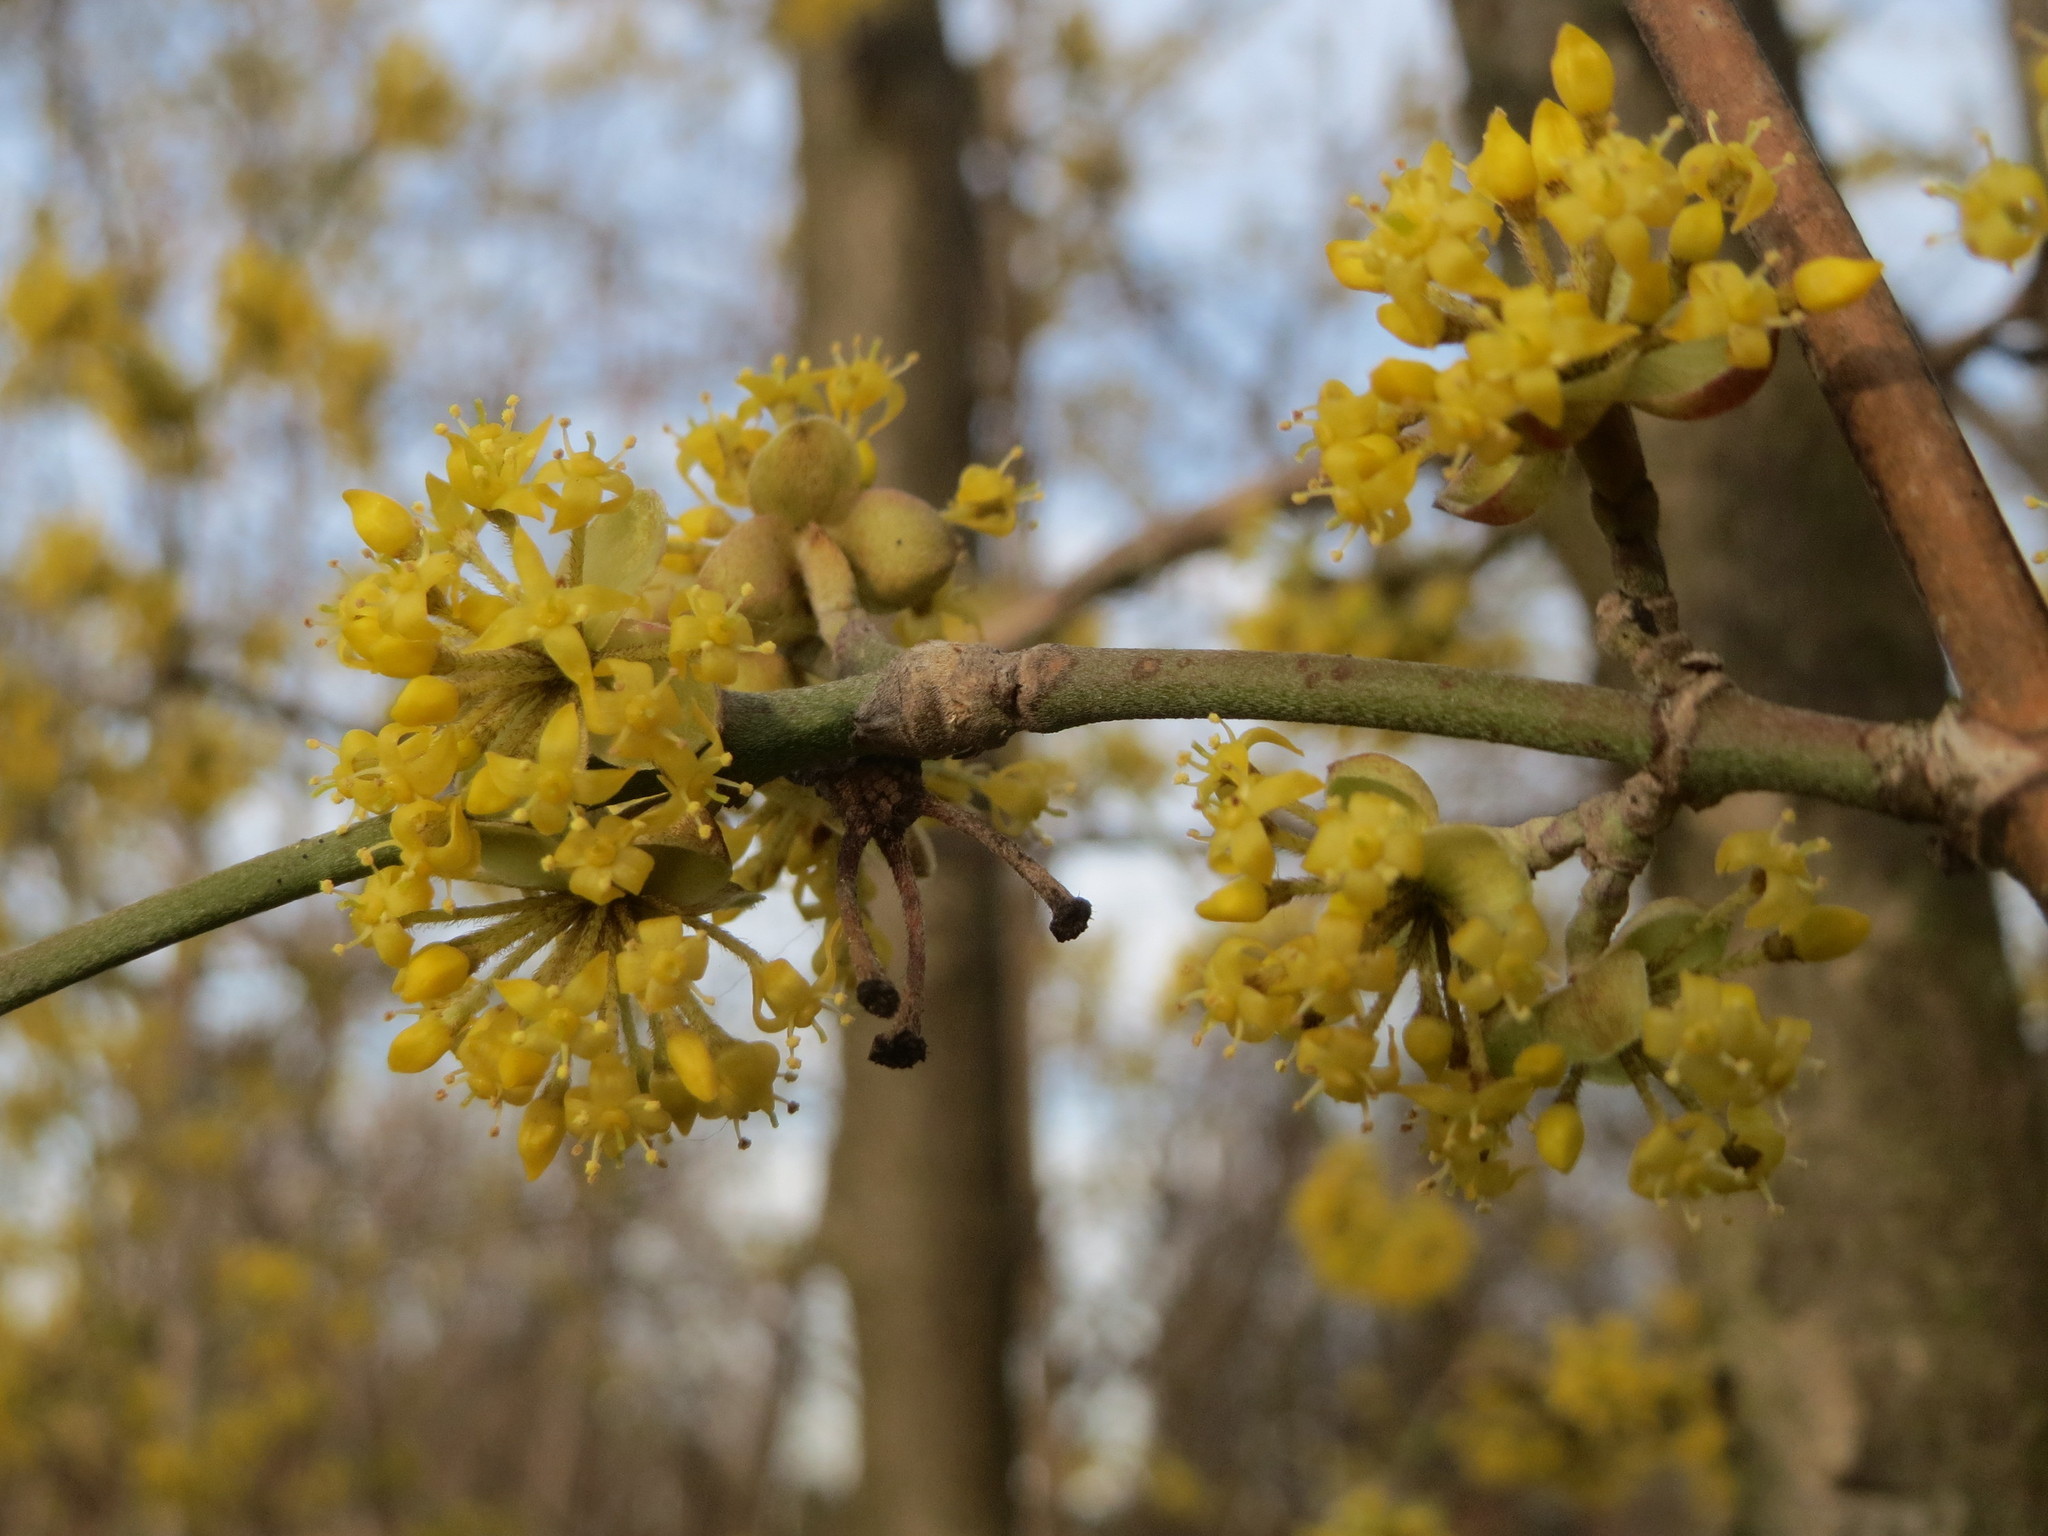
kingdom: Plantae
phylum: Tracheophyta
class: Magnoliopsida
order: Cornales
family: Cornaceae
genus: Cornus
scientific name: Cornus mas
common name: Cornelian-cherry
